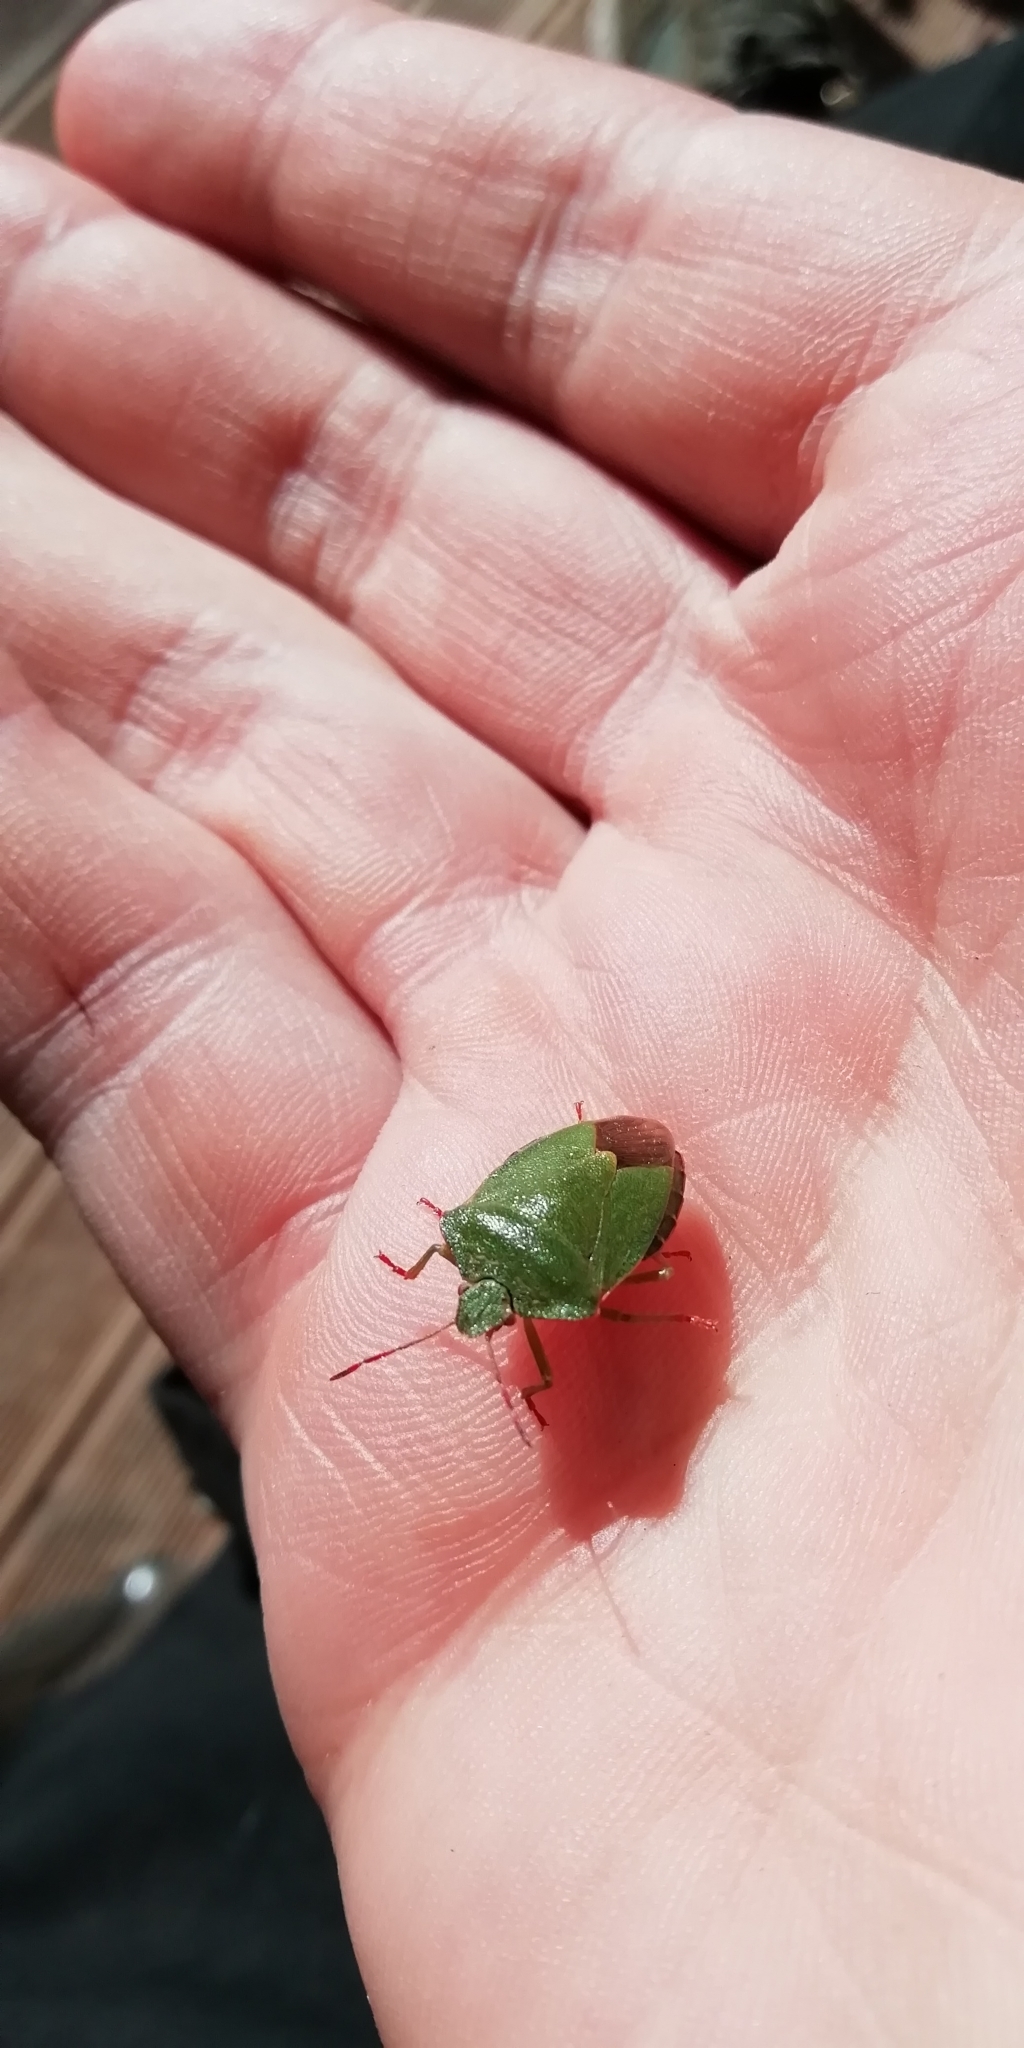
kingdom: Animalia
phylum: Arthropoda
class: Insecta
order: Hemiptera
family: Pentatomidae
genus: Palomena
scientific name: Palomena prasina
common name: Green shieldbug
